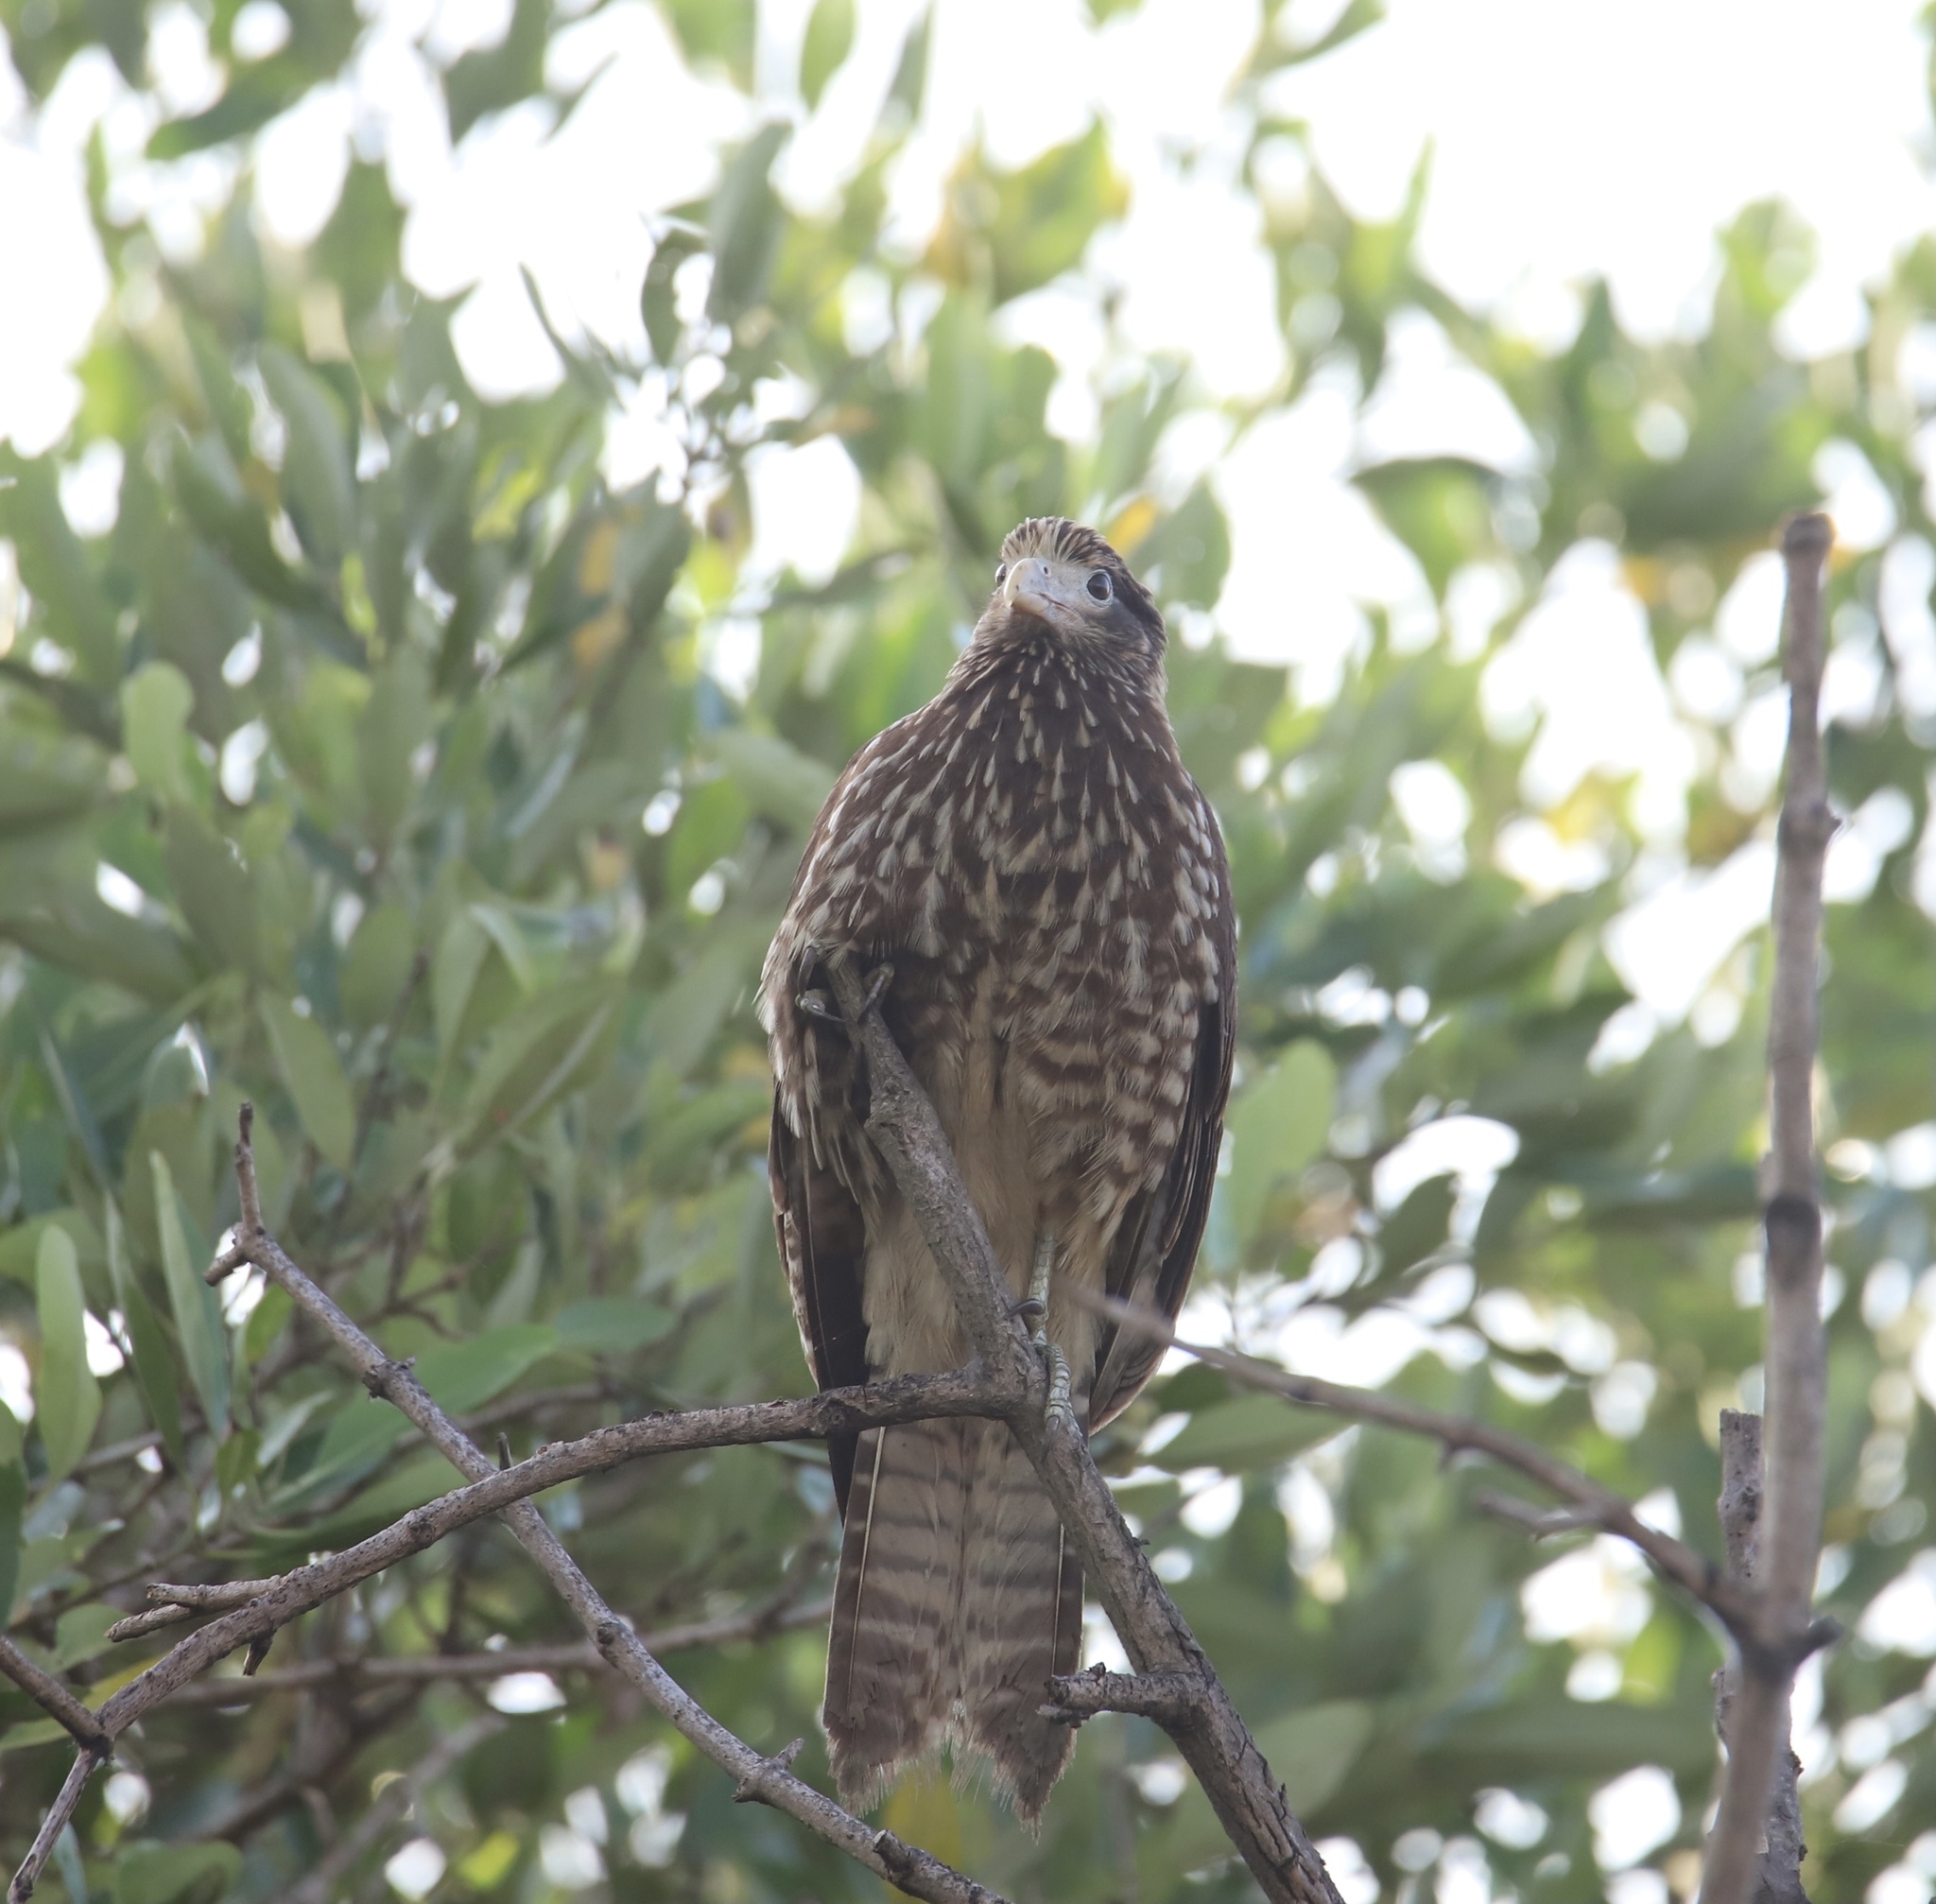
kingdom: Animalia
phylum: Chordata
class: Aves
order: Falconiformes
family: Falconidae
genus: Daptrius
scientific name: Daptrius
